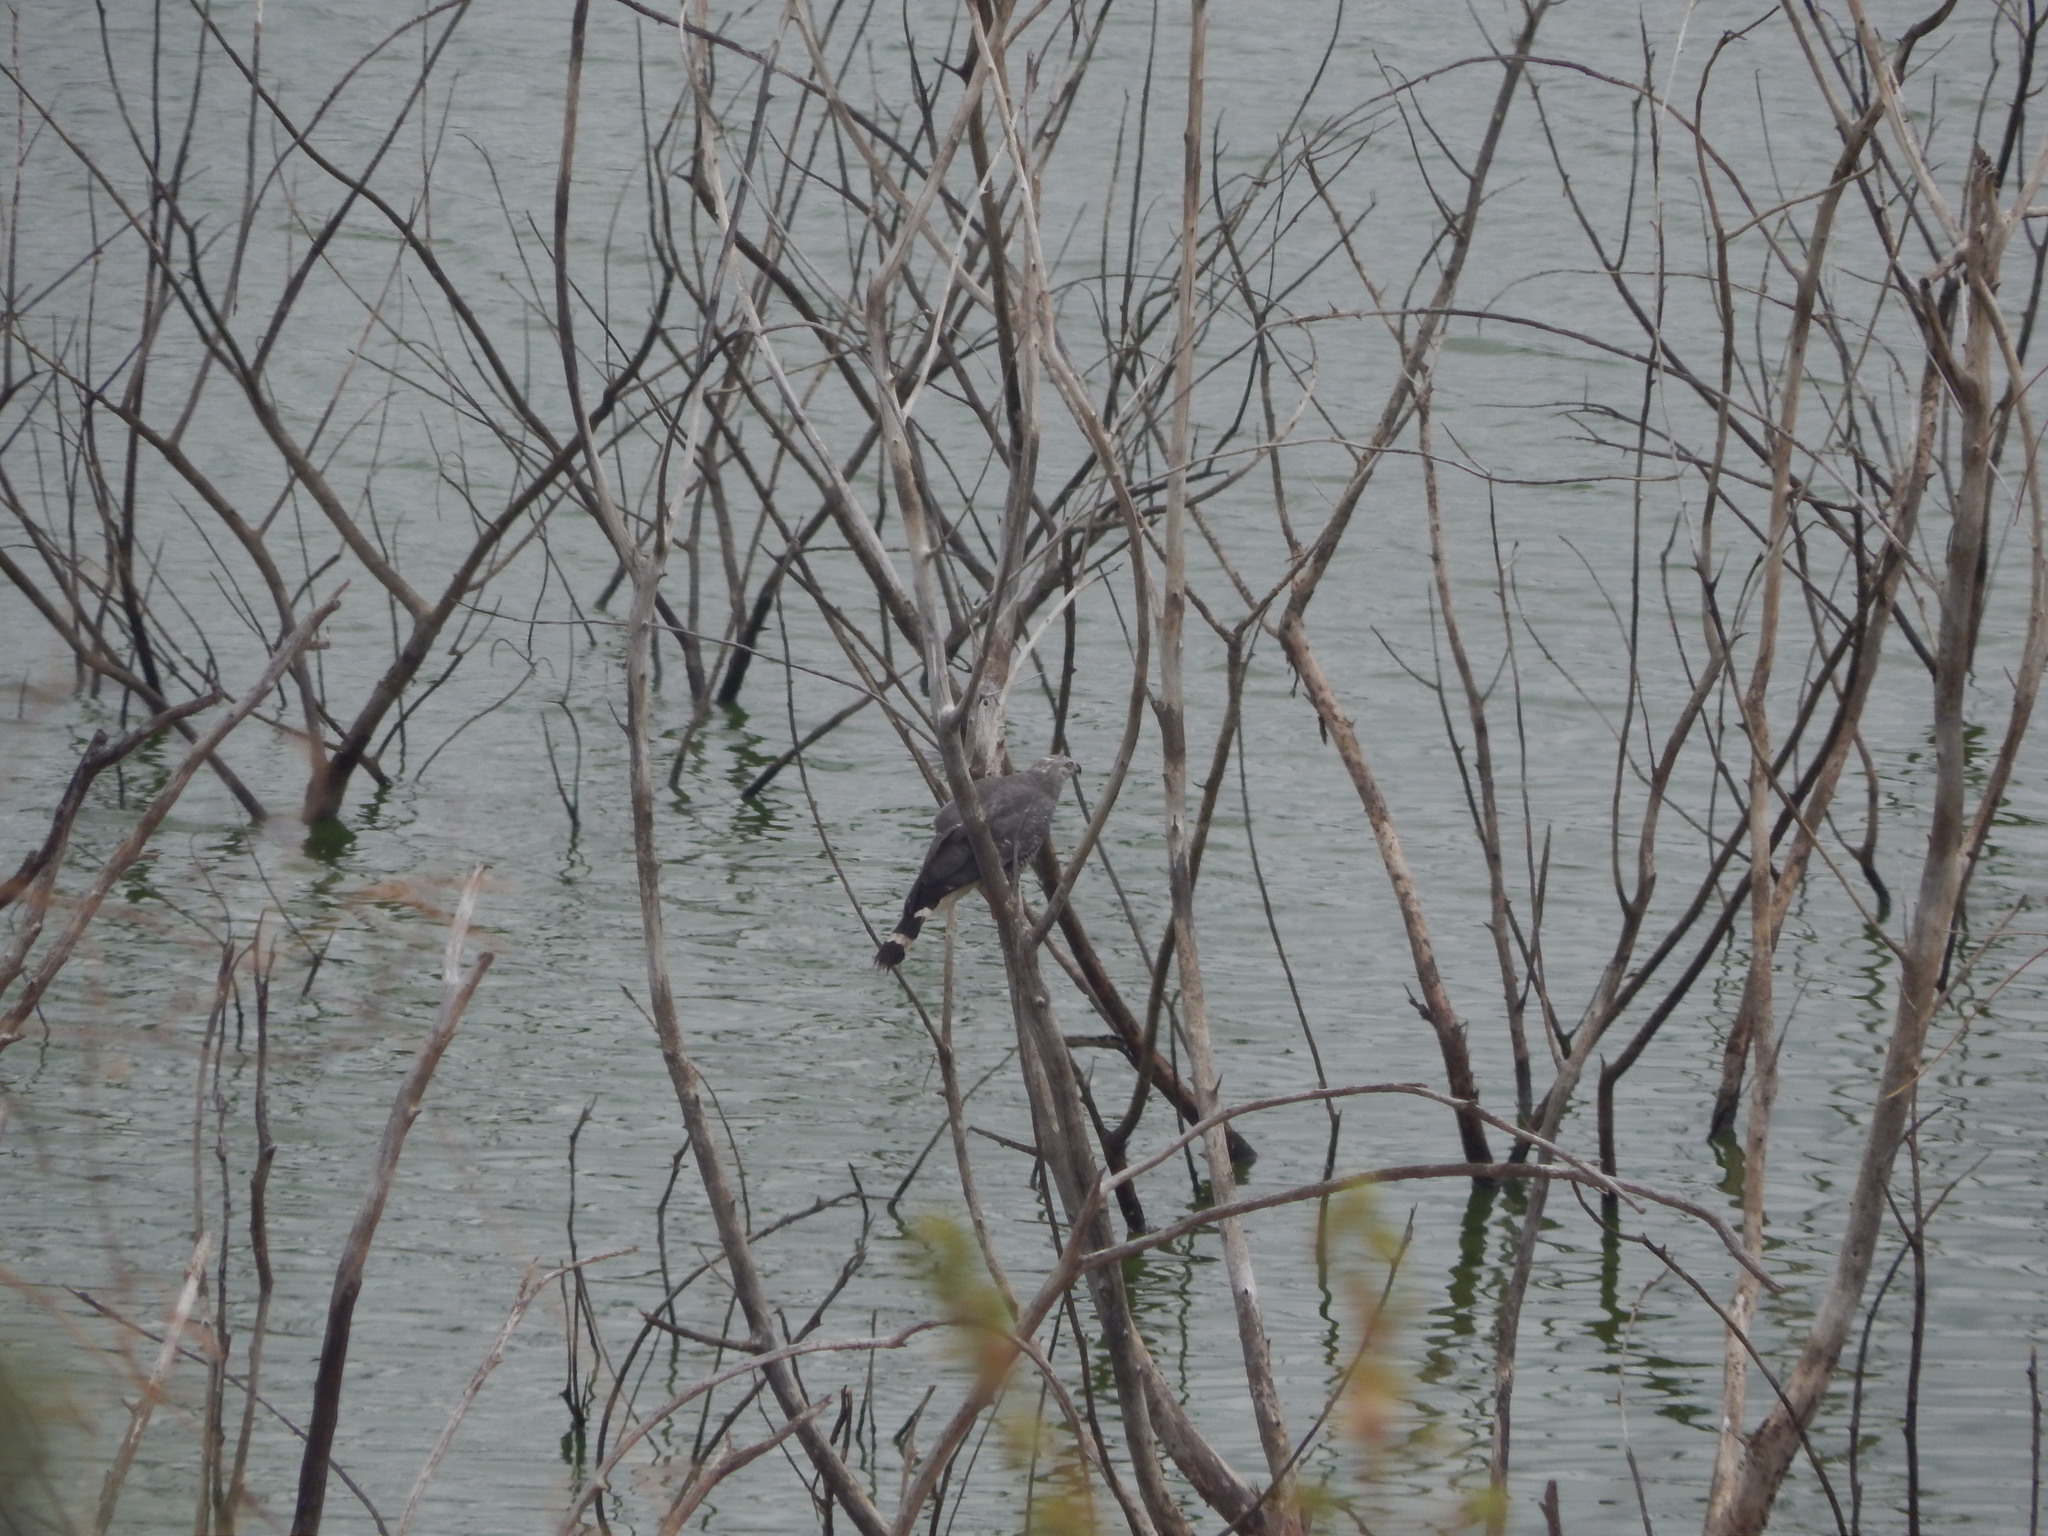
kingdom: Animalia
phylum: Chordata
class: Aves
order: Accipitriformes
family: Accipitridae
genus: Geranospiza
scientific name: Geranospiza caerulescens
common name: Crane hawk
